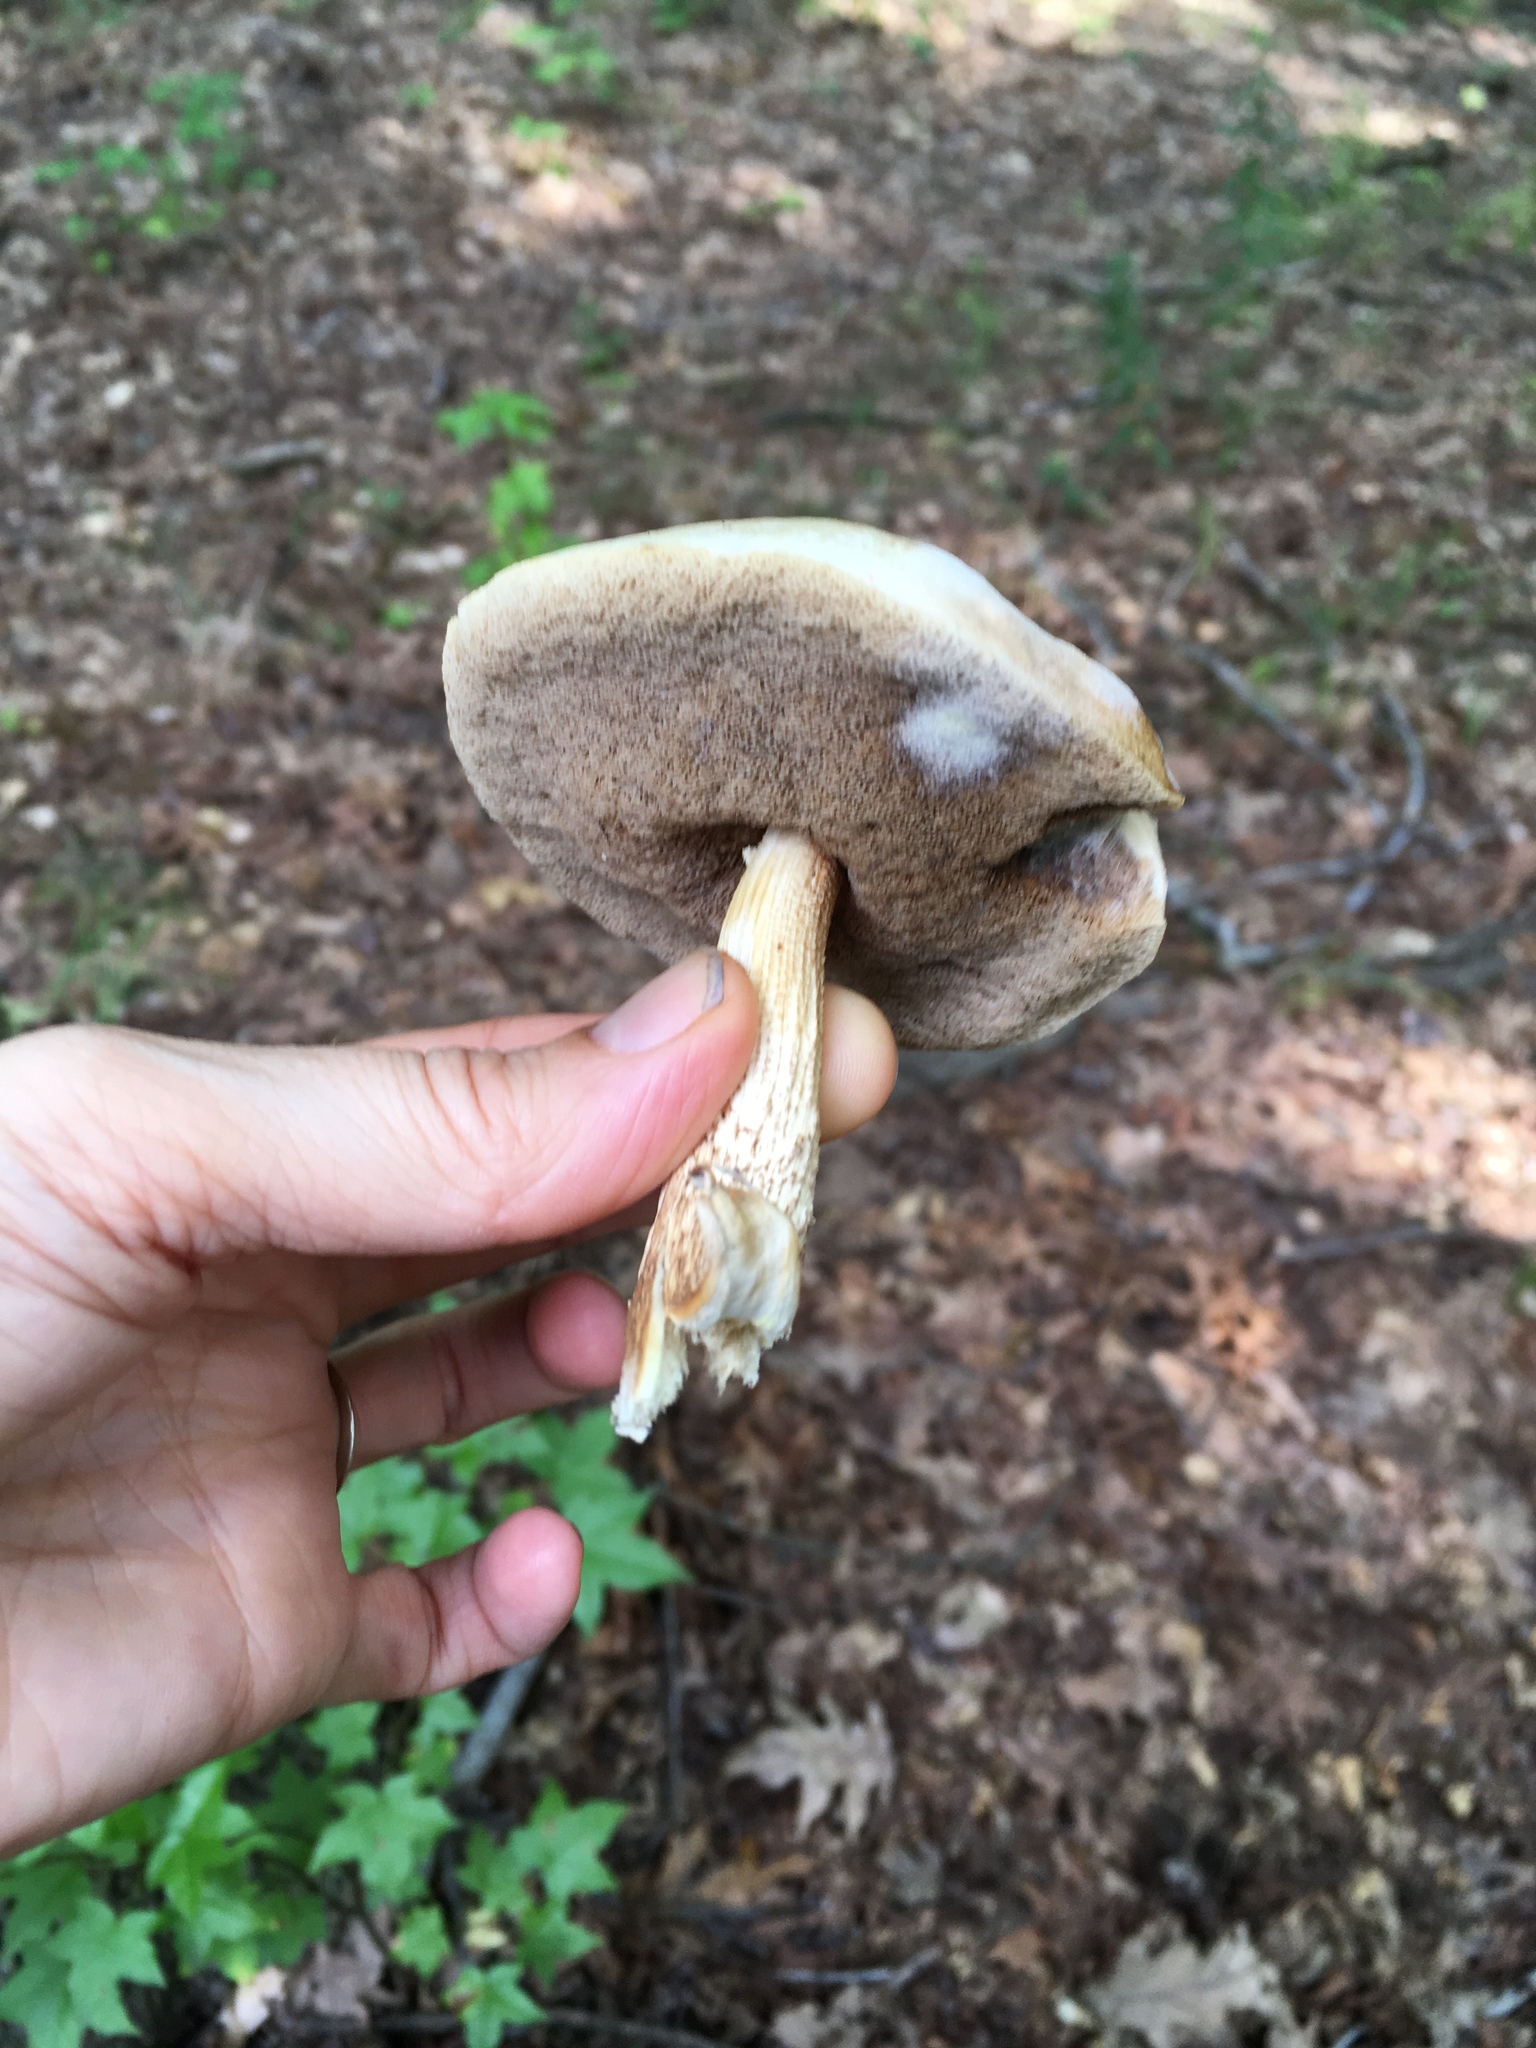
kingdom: Fungi
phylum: Basidiomycota
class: Agaricomycetes
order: Boletales
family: Boletaceae
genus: Leccinellum
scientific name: Leccinellum albellum
